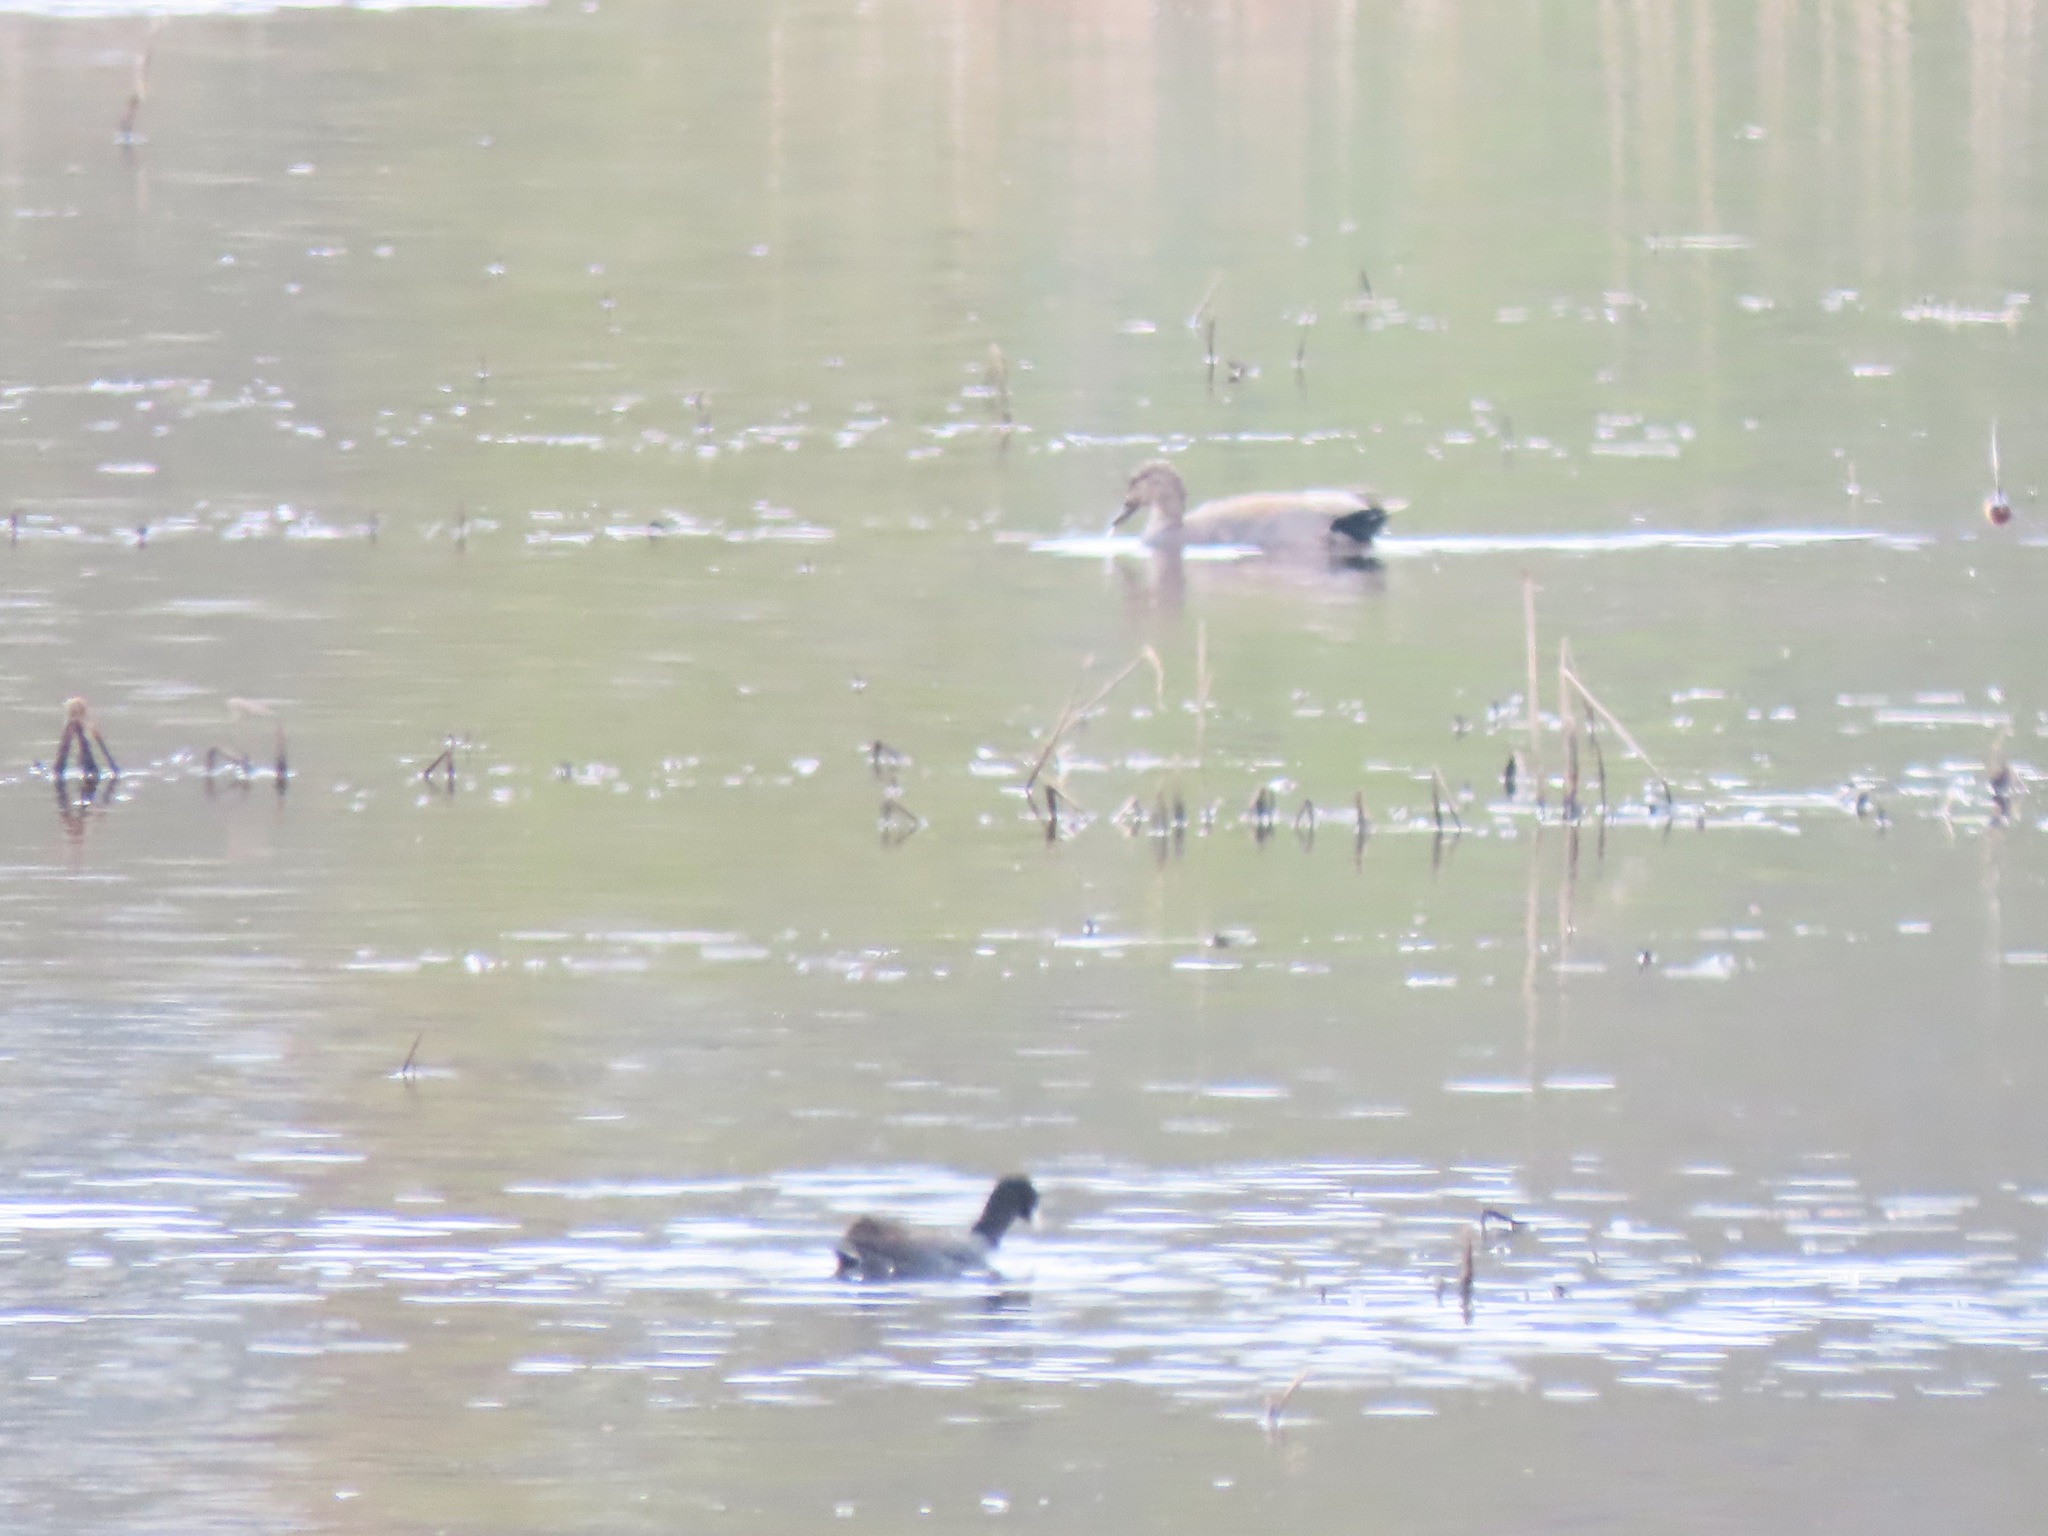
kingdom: Animalia
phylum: Chordata
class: Aves
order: Gruiformes
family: Rallidae
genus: Fulica
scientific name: Fulica americana
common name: American coot
